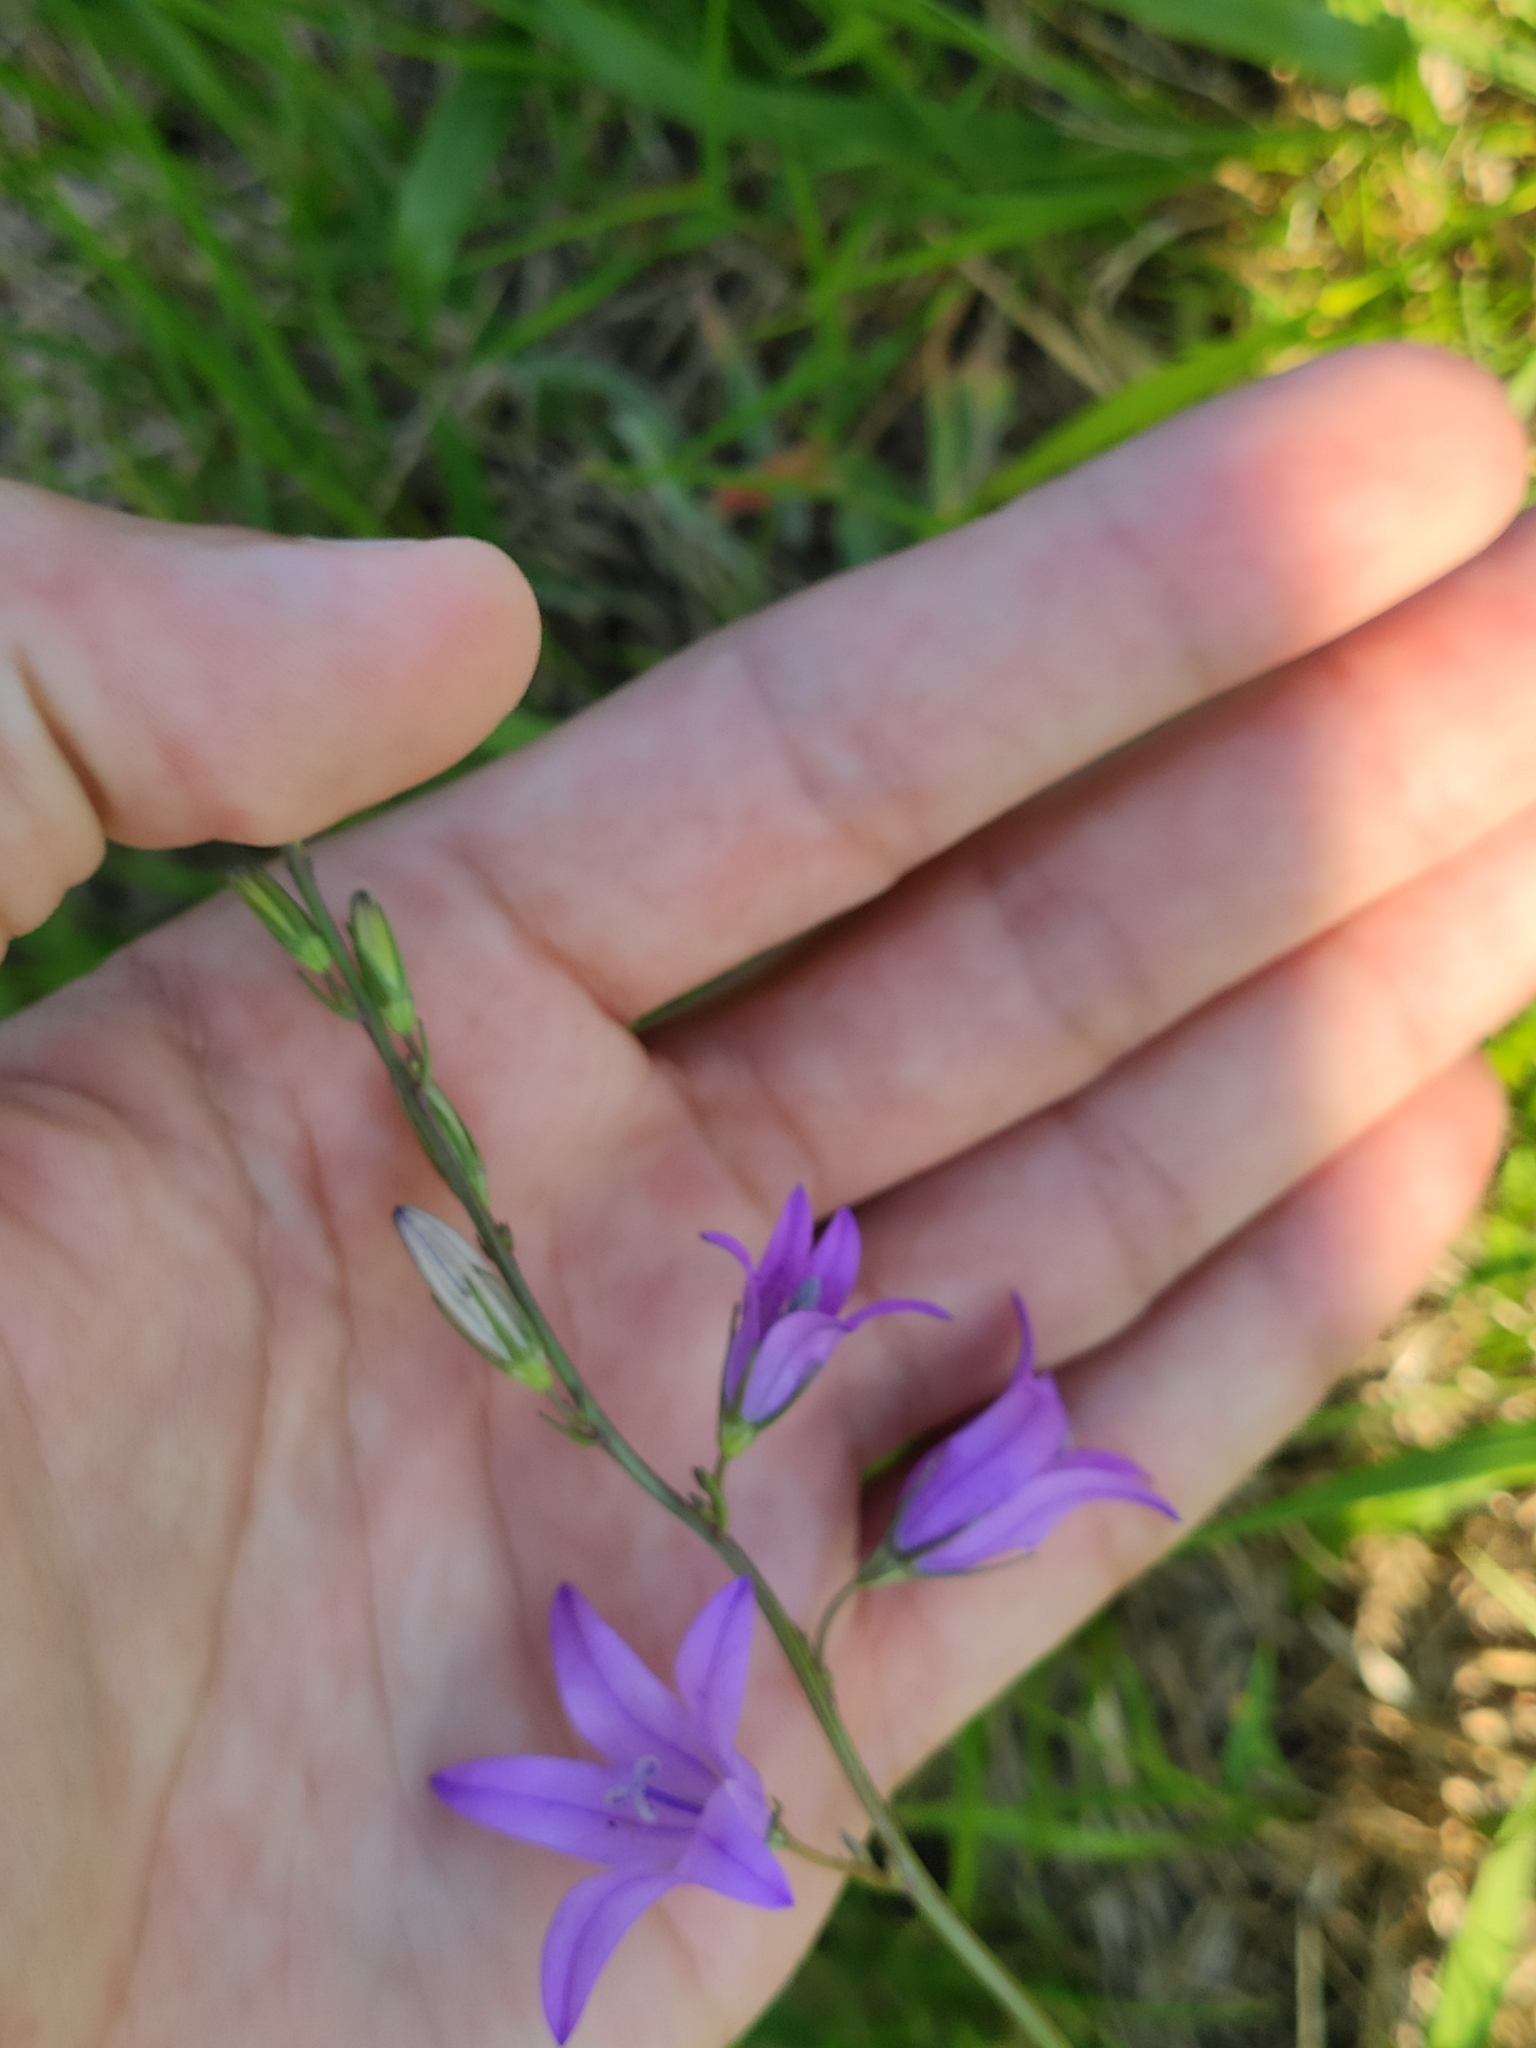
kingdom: Plantae
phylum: Tracheophyta
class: Magnoliopsida
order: Asterales
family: Campanulaceae
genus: Campanula
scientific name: Campanula rapunculus
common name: Rampion bellflower
